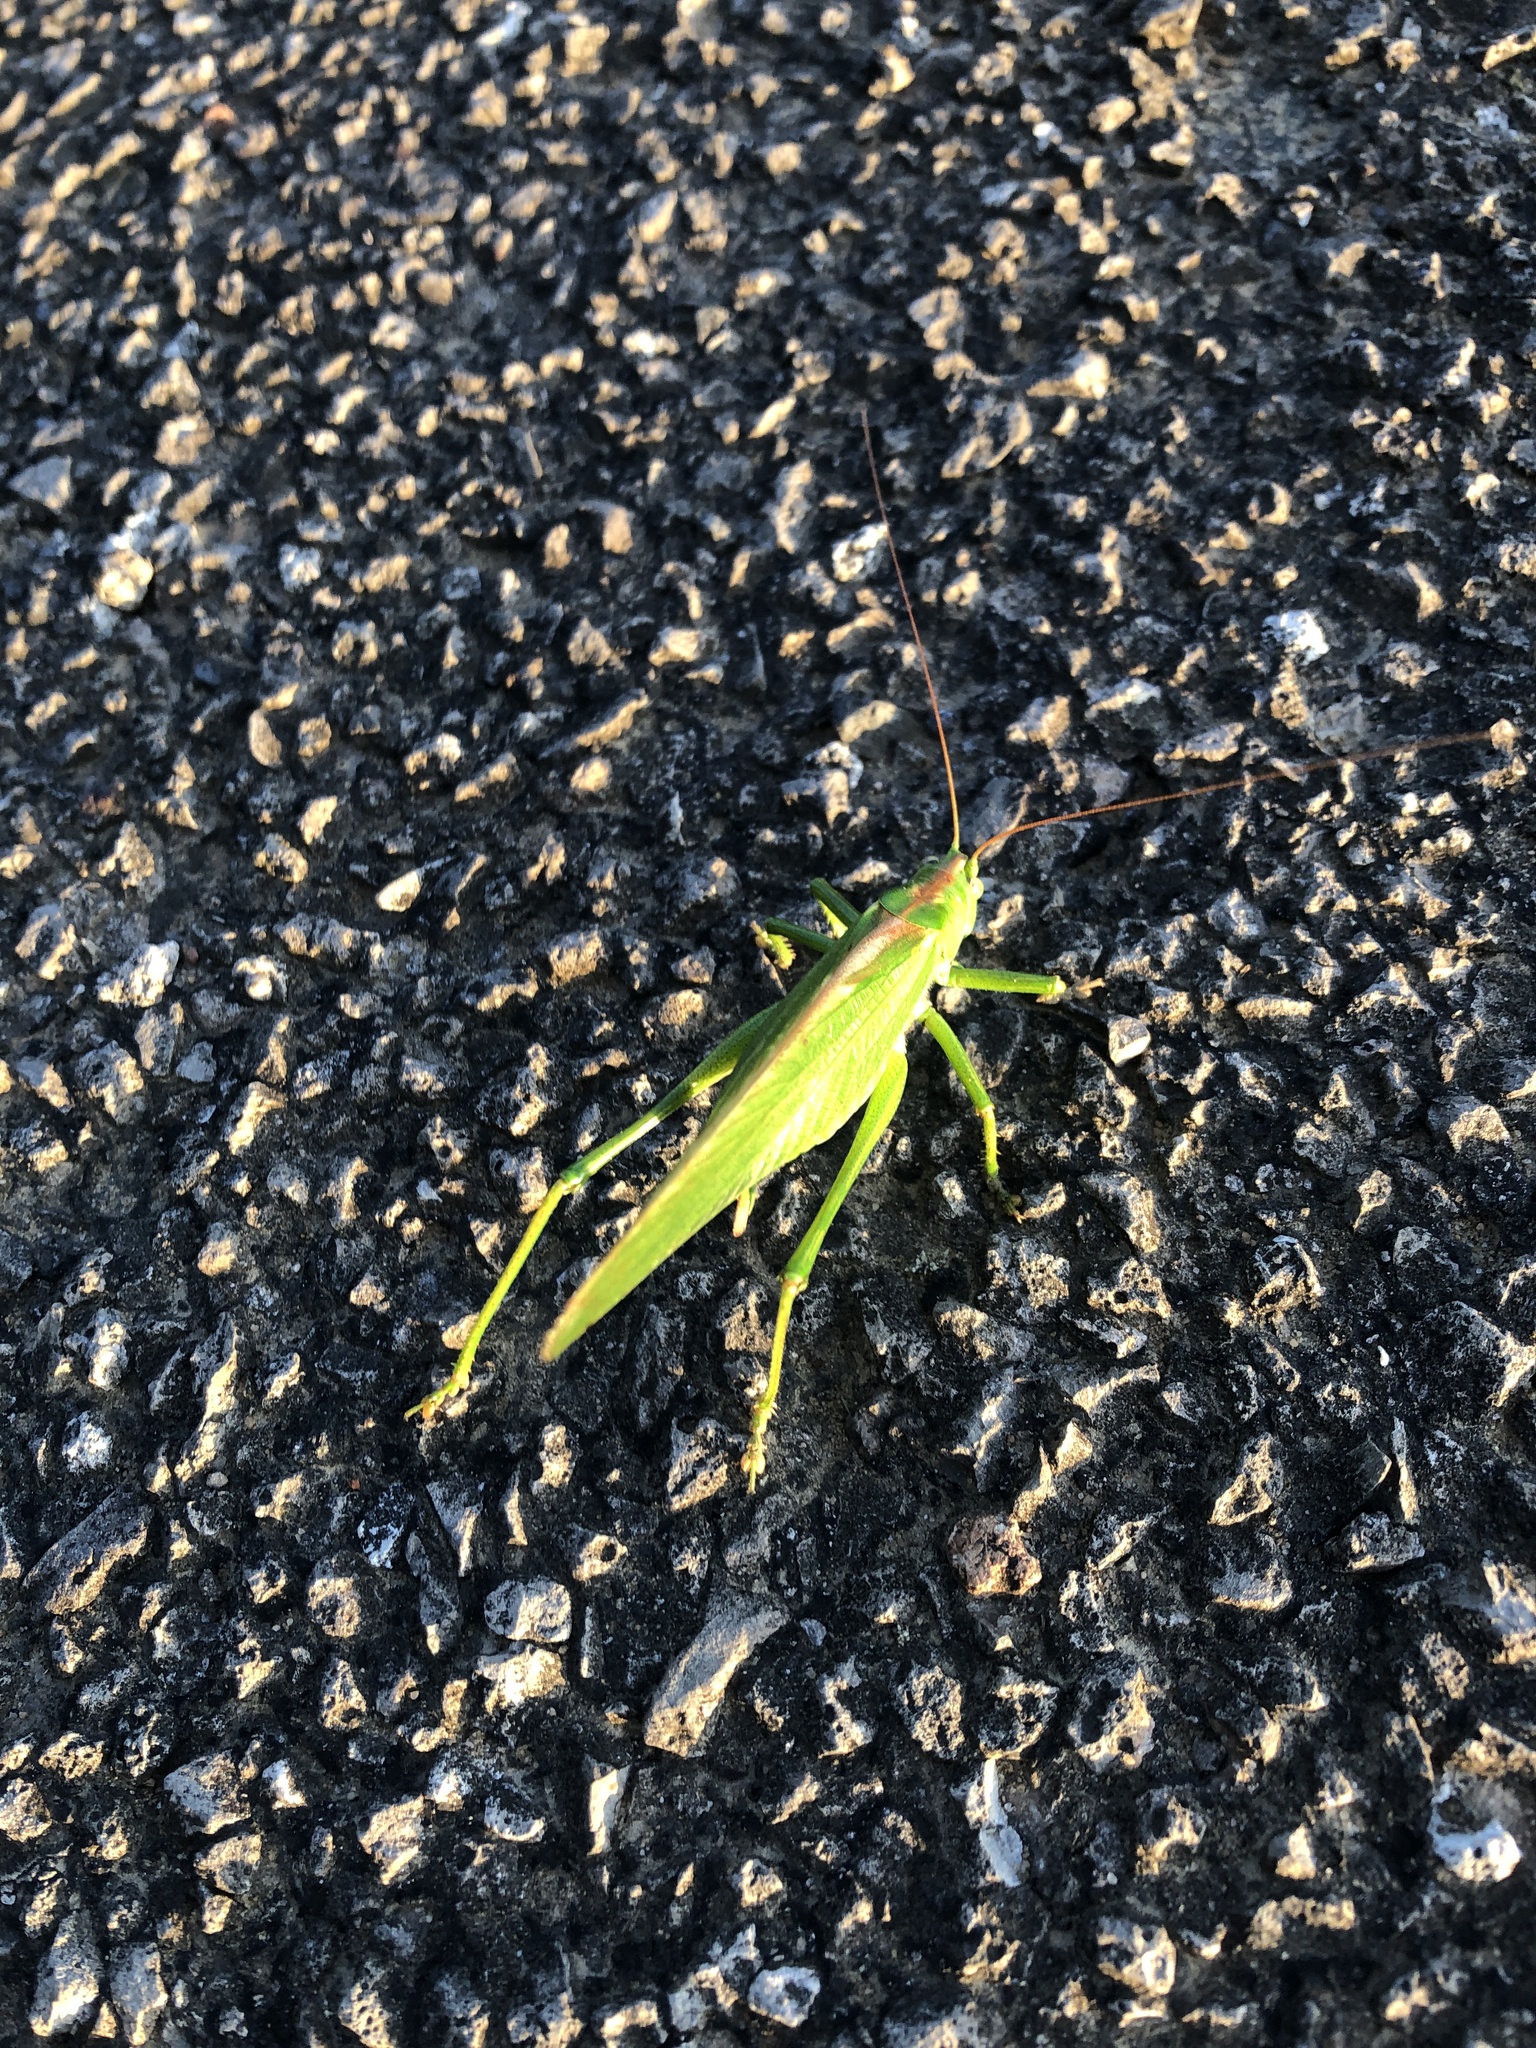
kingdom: Animalia
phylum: Arthropoda
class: Insecta
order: Orthoptera
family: Tettigoniidae
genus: Tettigonia
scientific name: Tettigonia viridissima
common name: Great green bush-cricket
